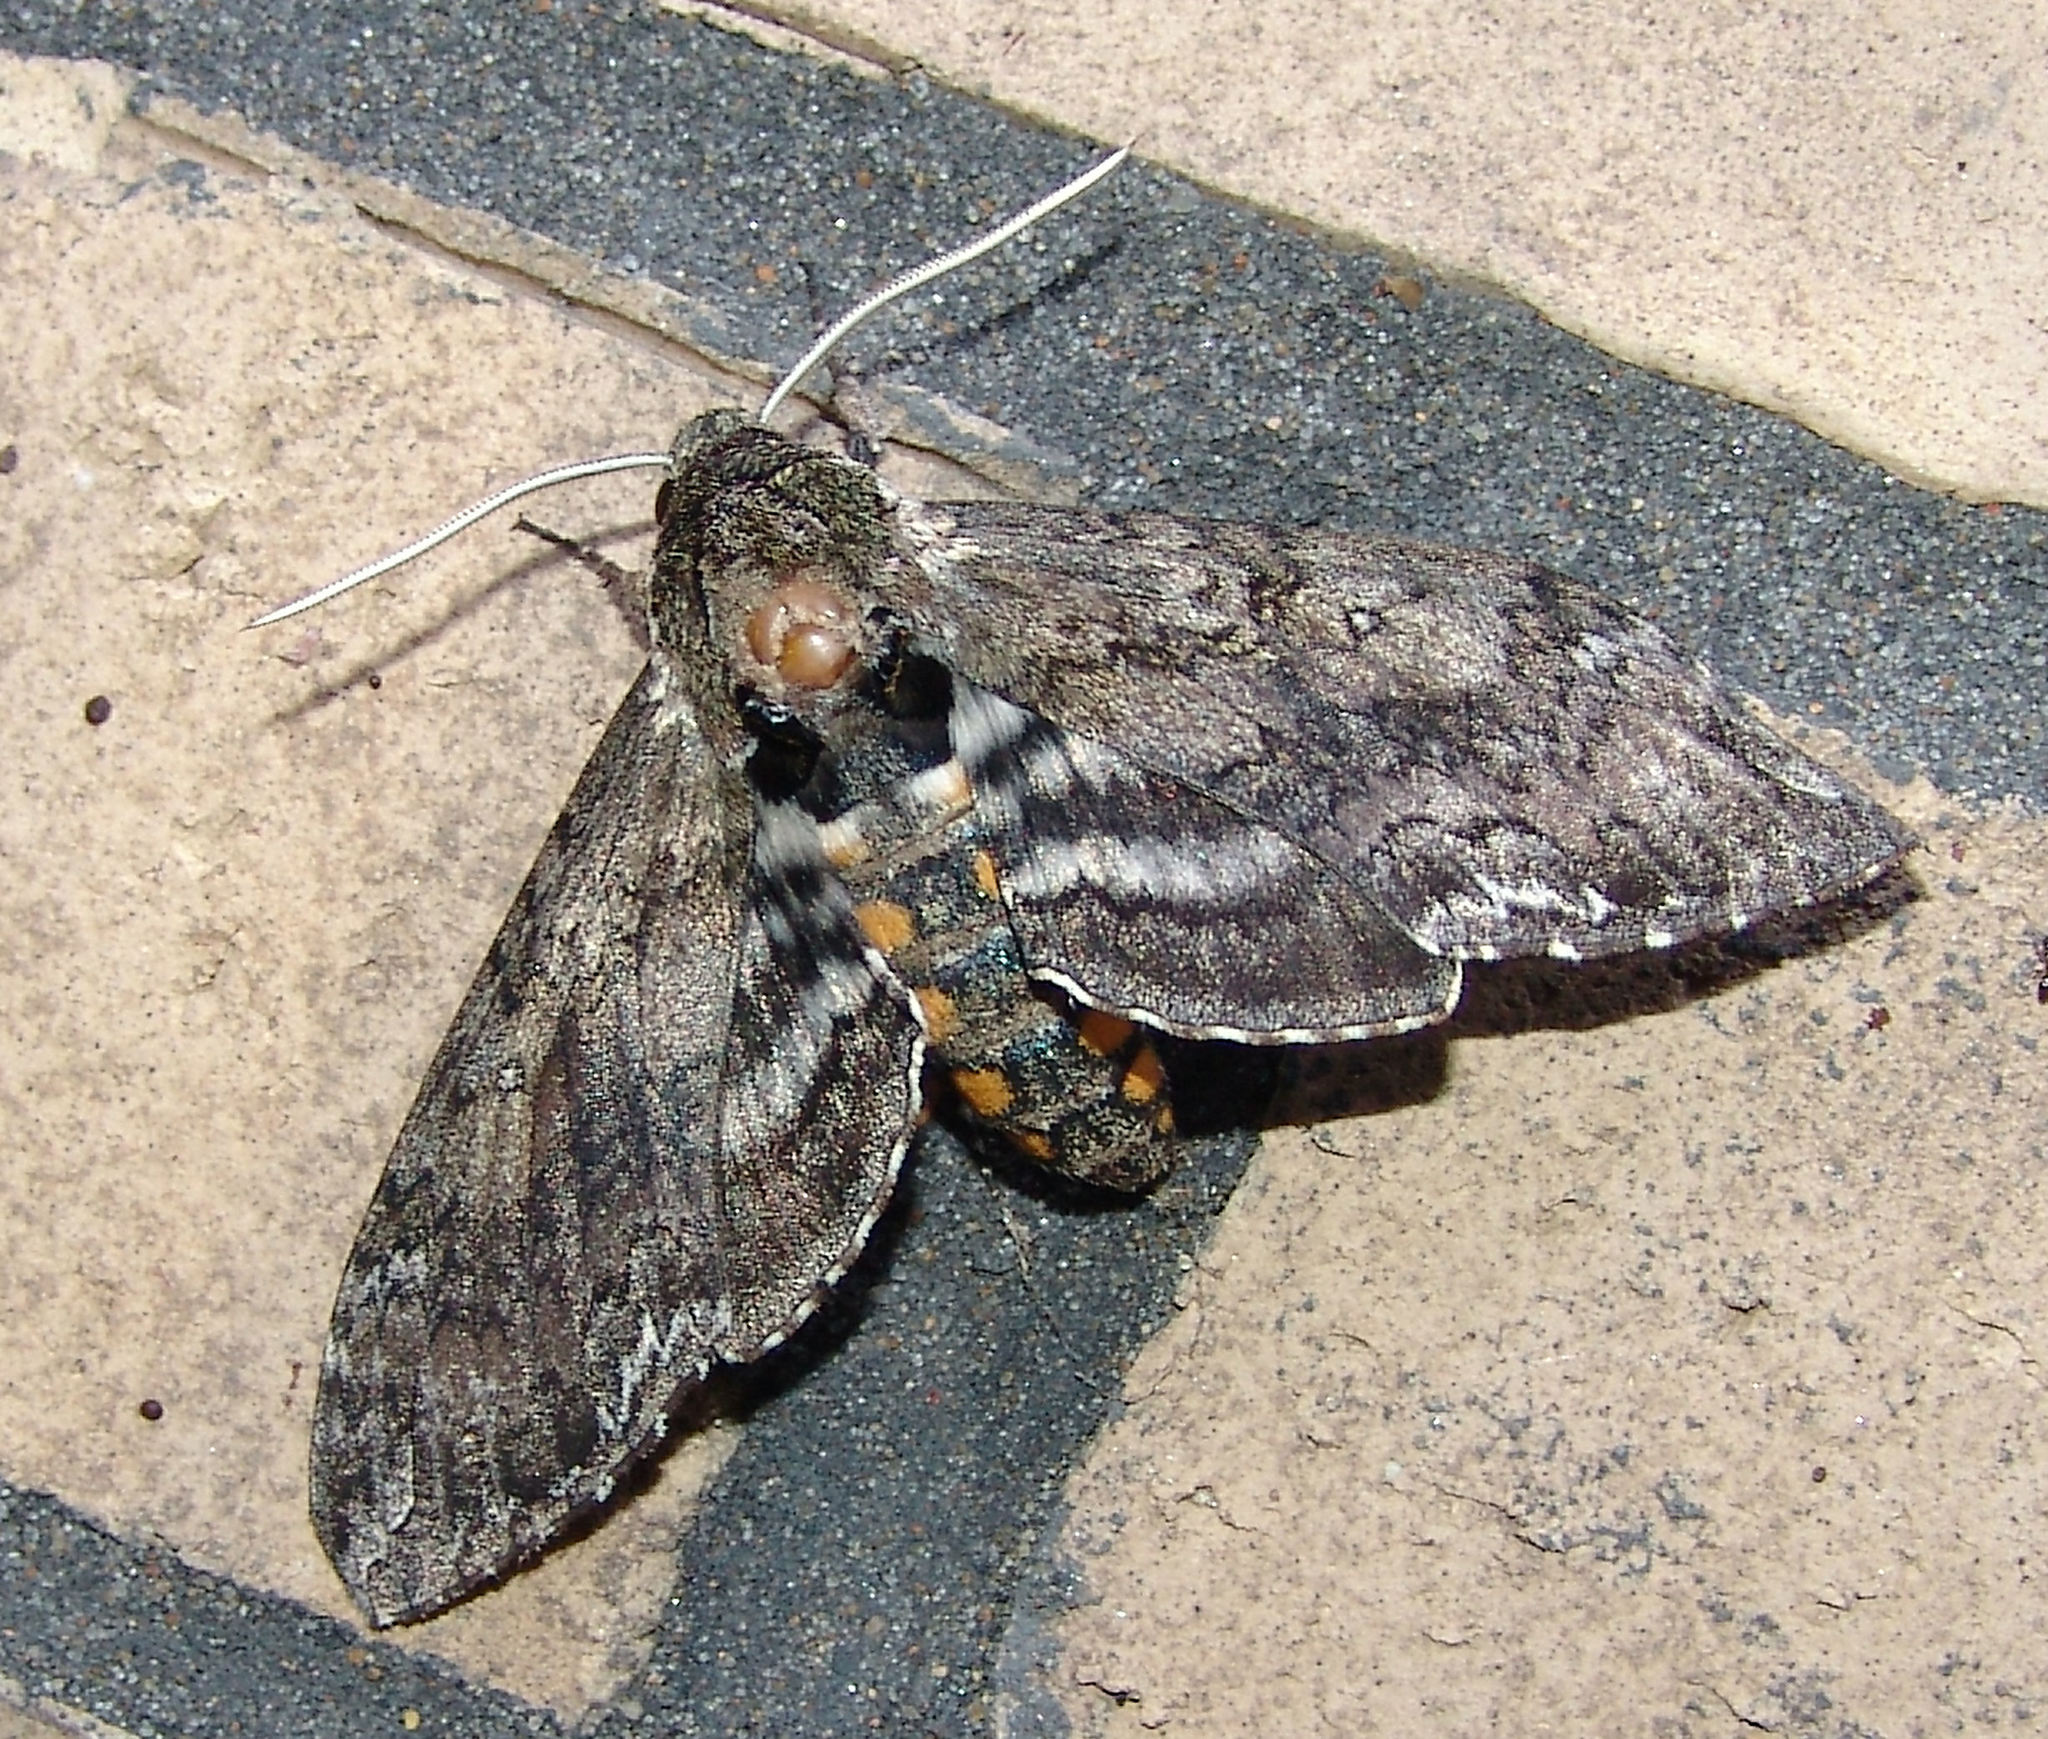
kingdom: Animalia
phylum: Arthropoda
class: Insecta
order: Lepidoptera
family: Sphingidae
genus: Manduca
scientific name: Manduca sexta
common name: Carolina sphinx
